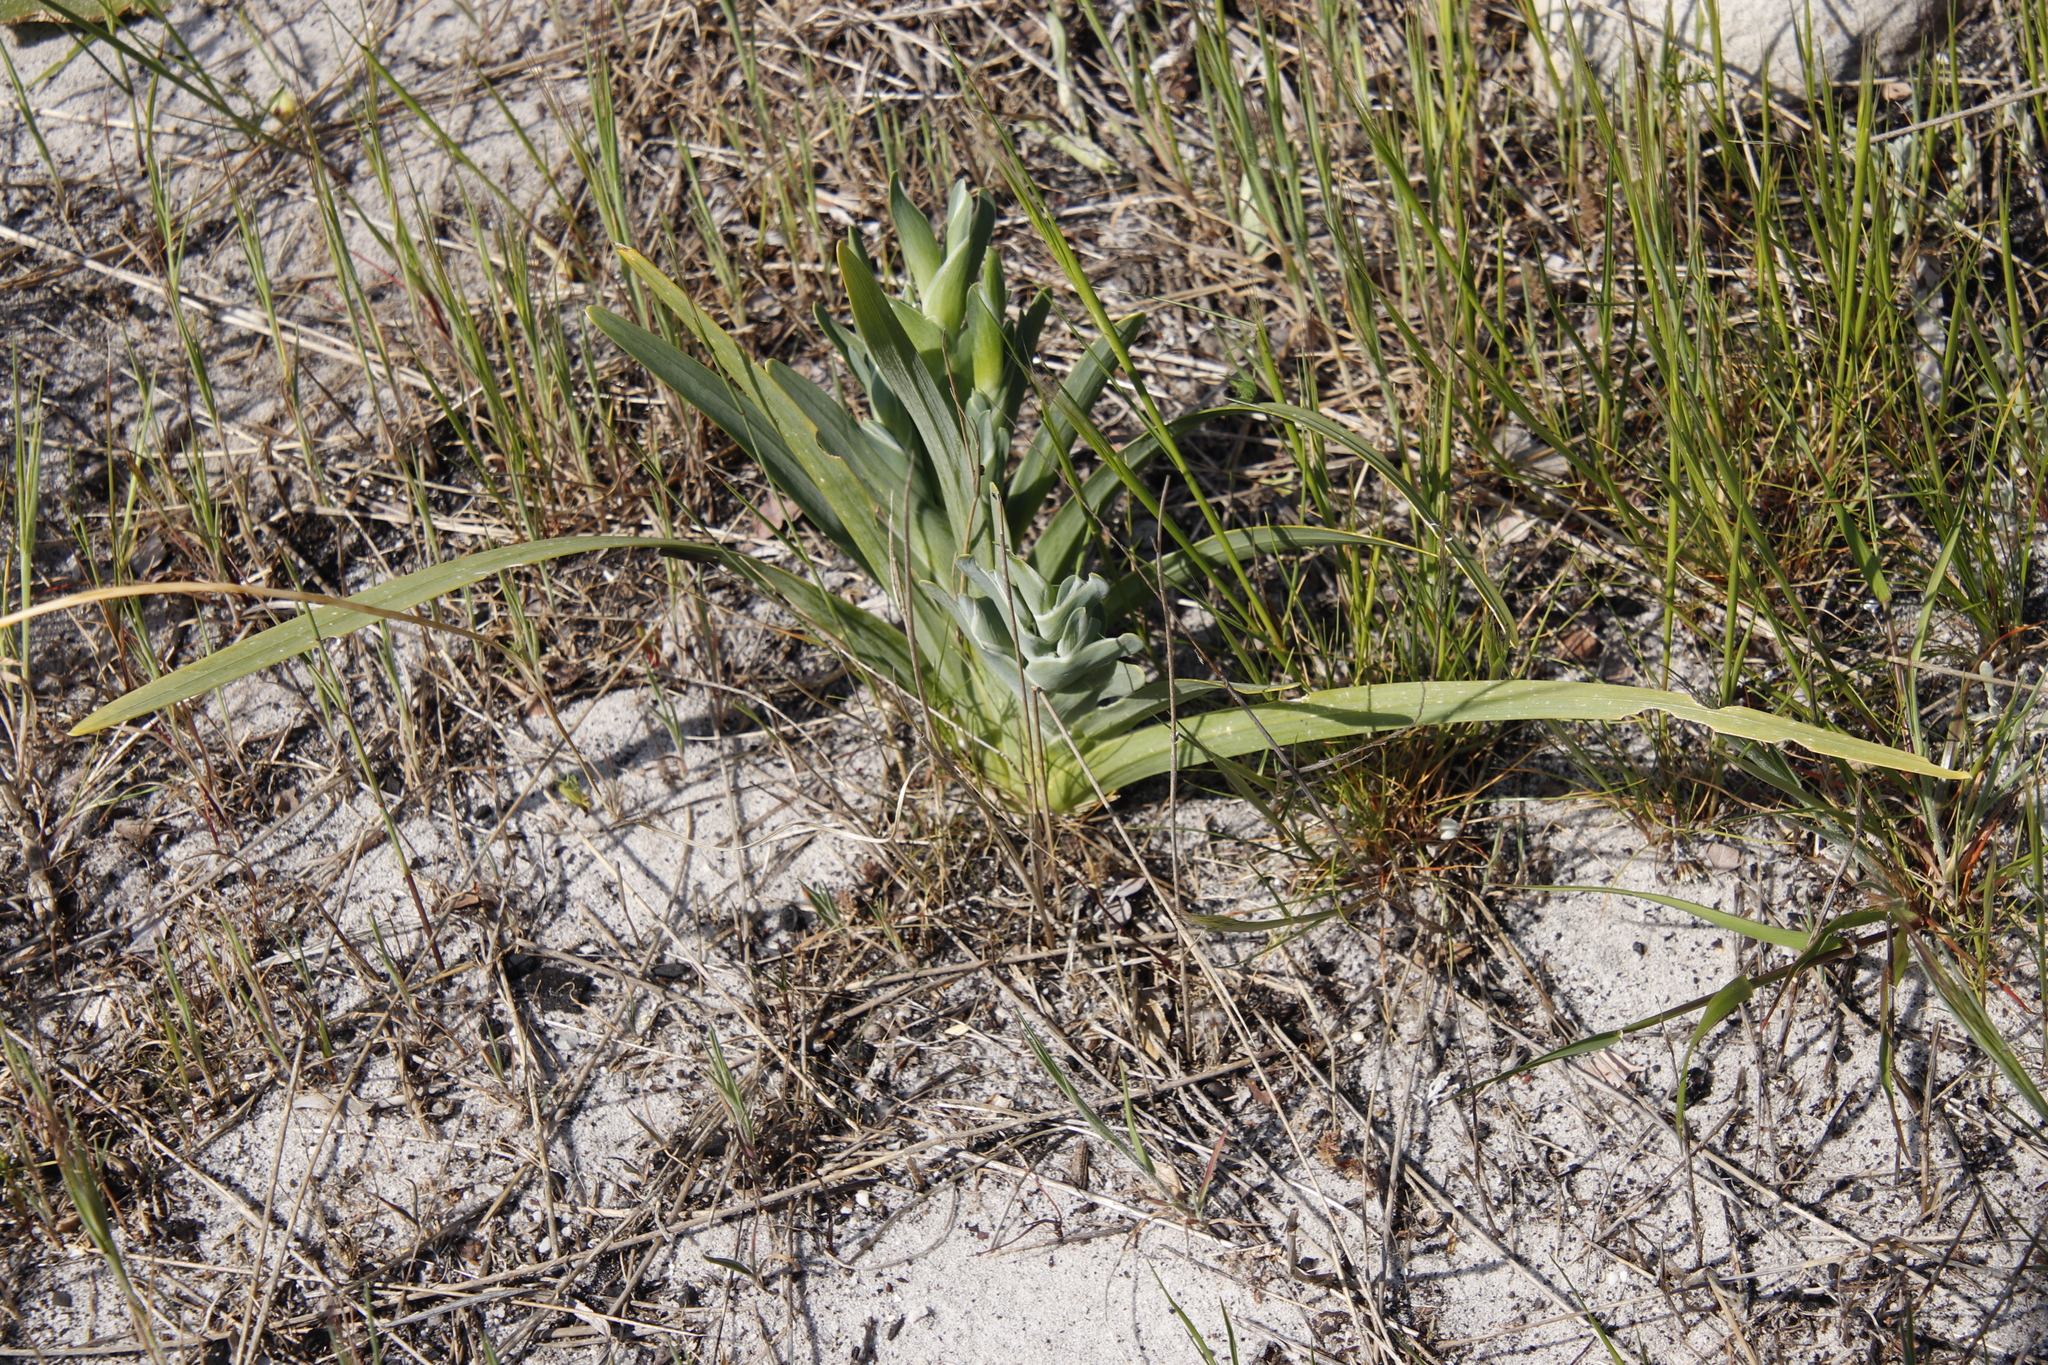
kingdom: Plantae
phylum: Tracheophyta
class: Liliopsida
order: Asparagales
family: Iridaceae
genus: Ferraria
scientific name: Ferraria crispa
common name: Black-flag
